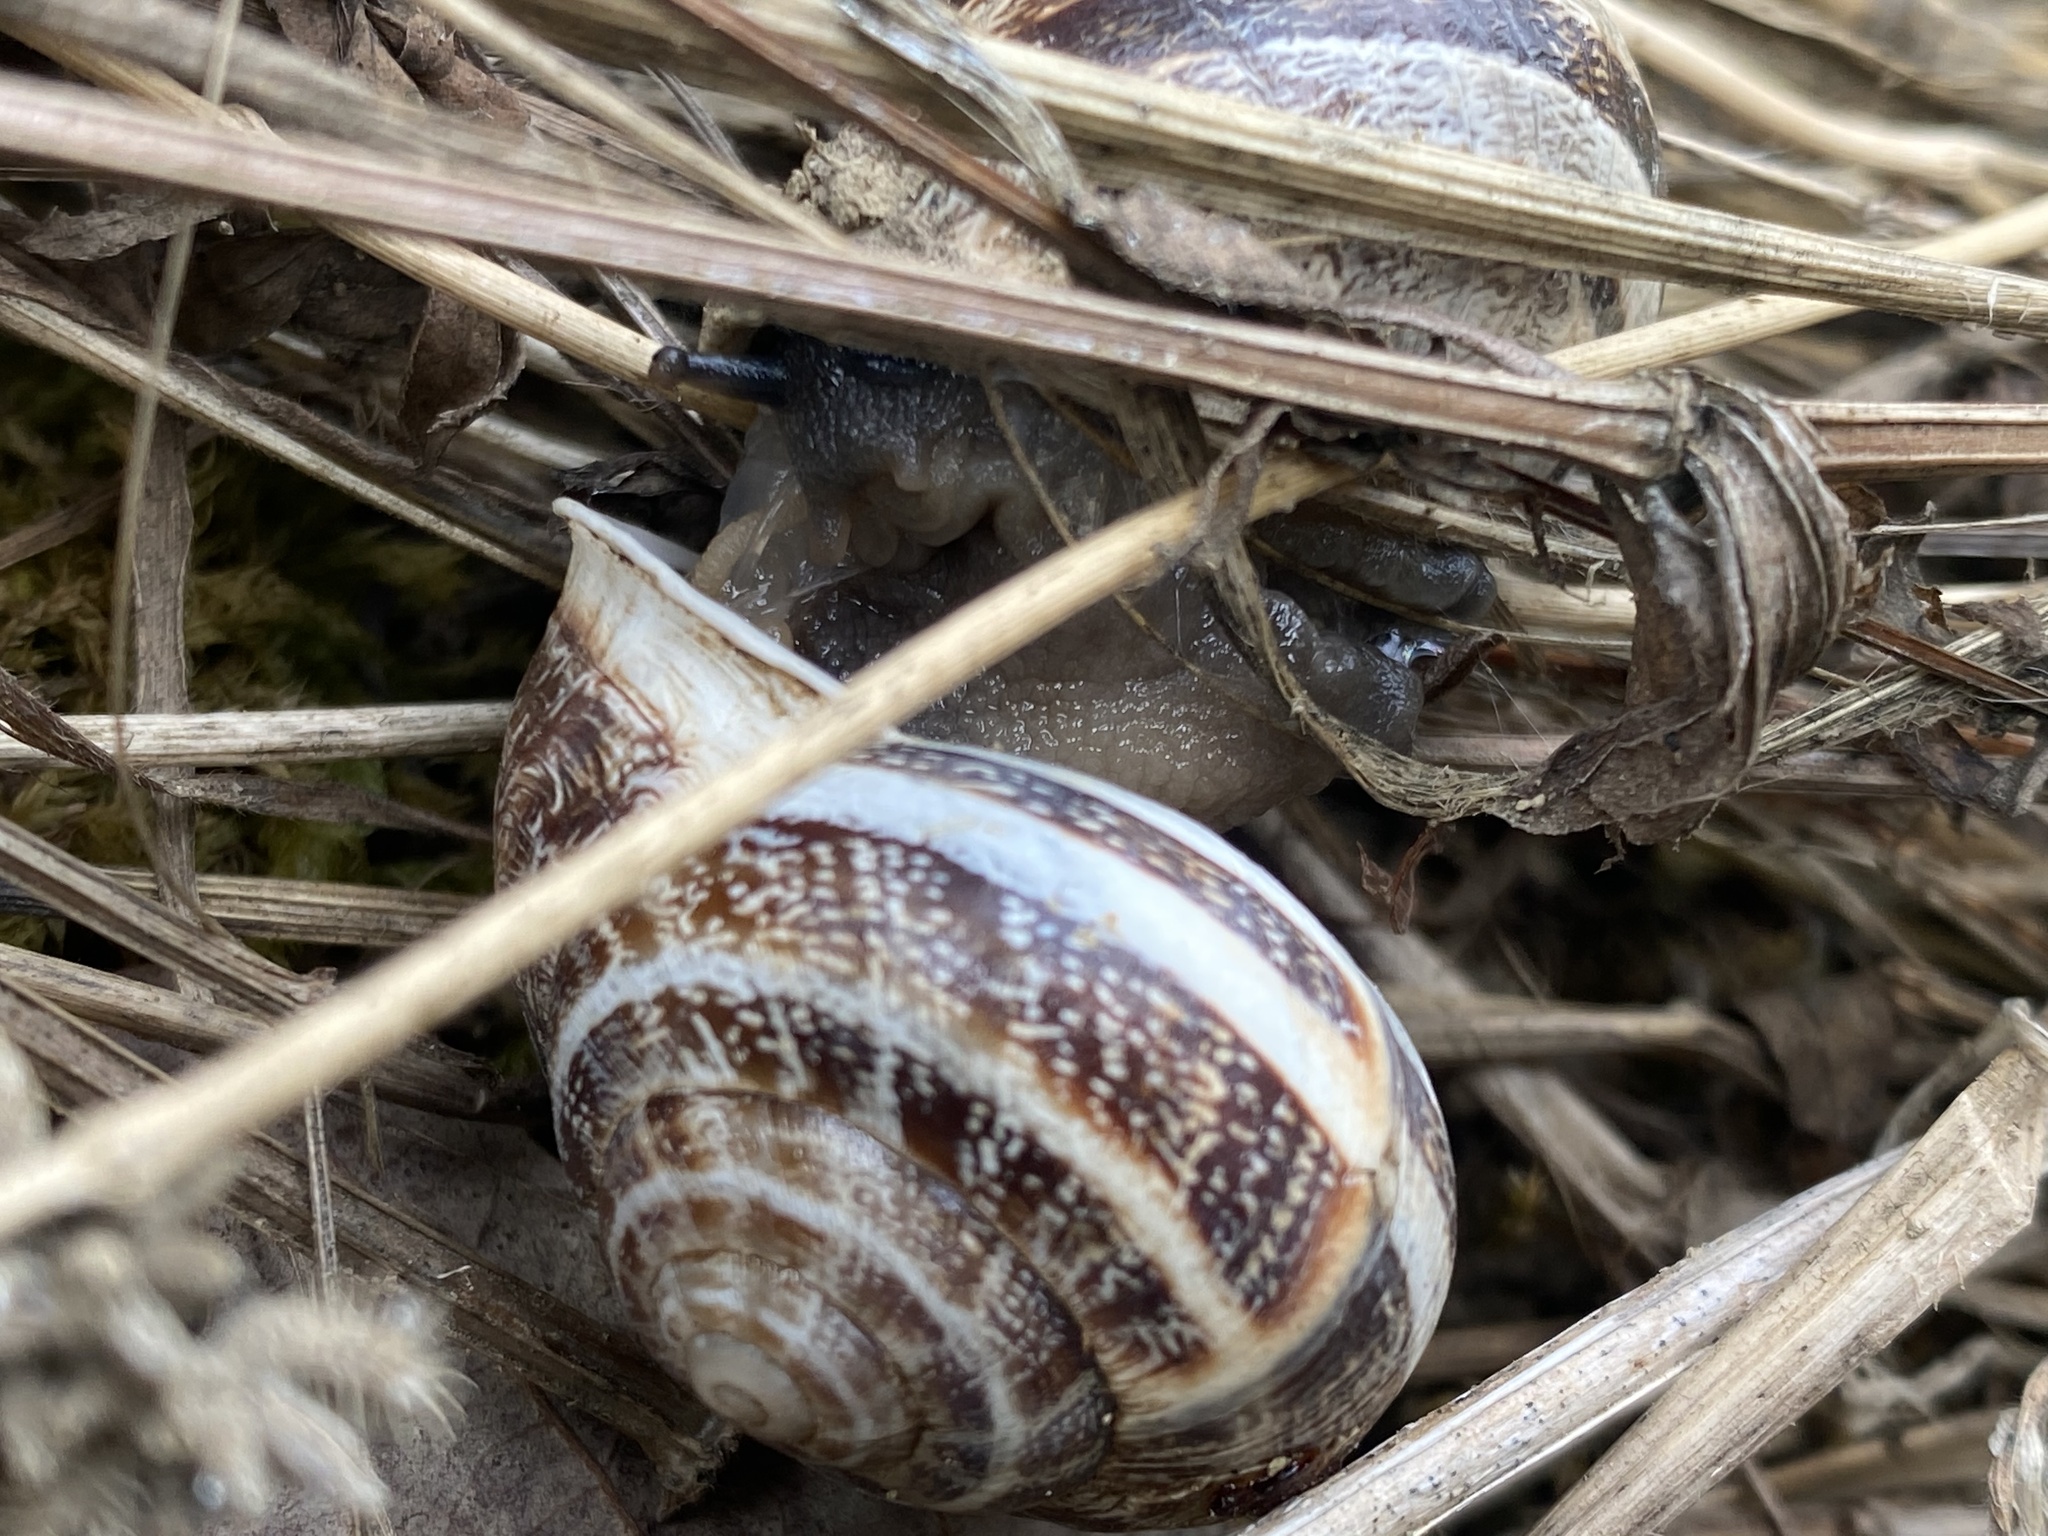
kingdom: Animalia
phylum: Mollusca
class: Gastropoda
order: Stylommatophora
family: Helicidae
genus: Eobania
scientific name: Eobania vermiculata
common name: Chocolateband snail
